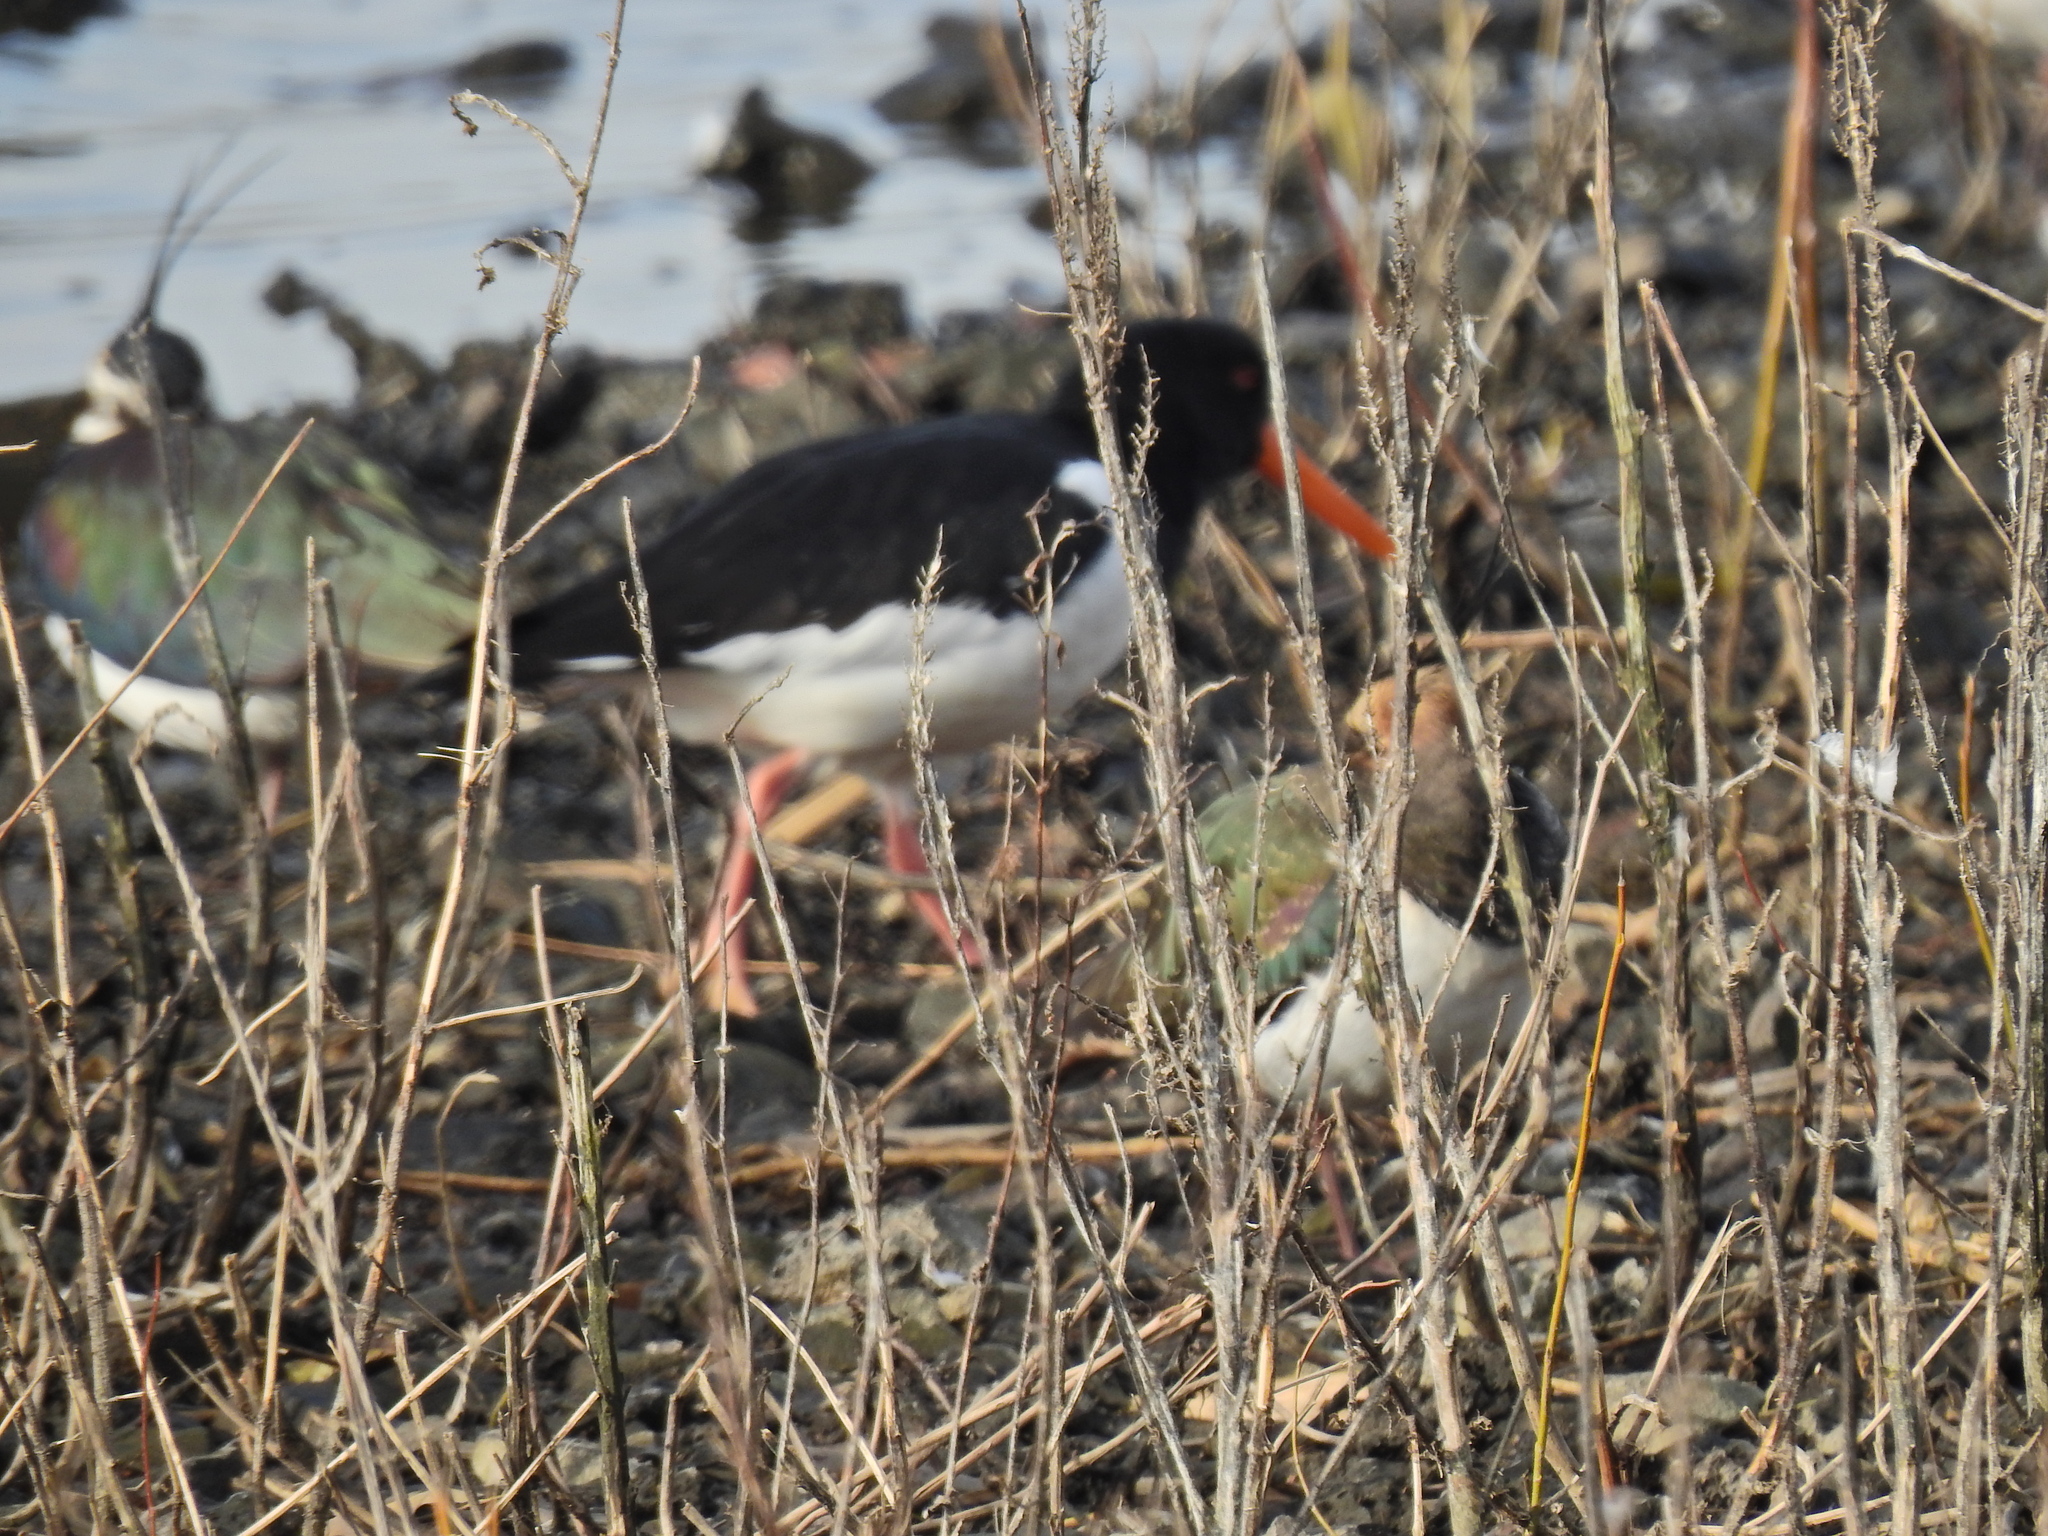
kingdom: Animalia
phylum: Chordata
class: Aves
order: Charadriiformes
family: Haematopodidae
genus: Haematopus
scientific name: Haematopus ostralegus
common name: Eurasian oystercatcher
